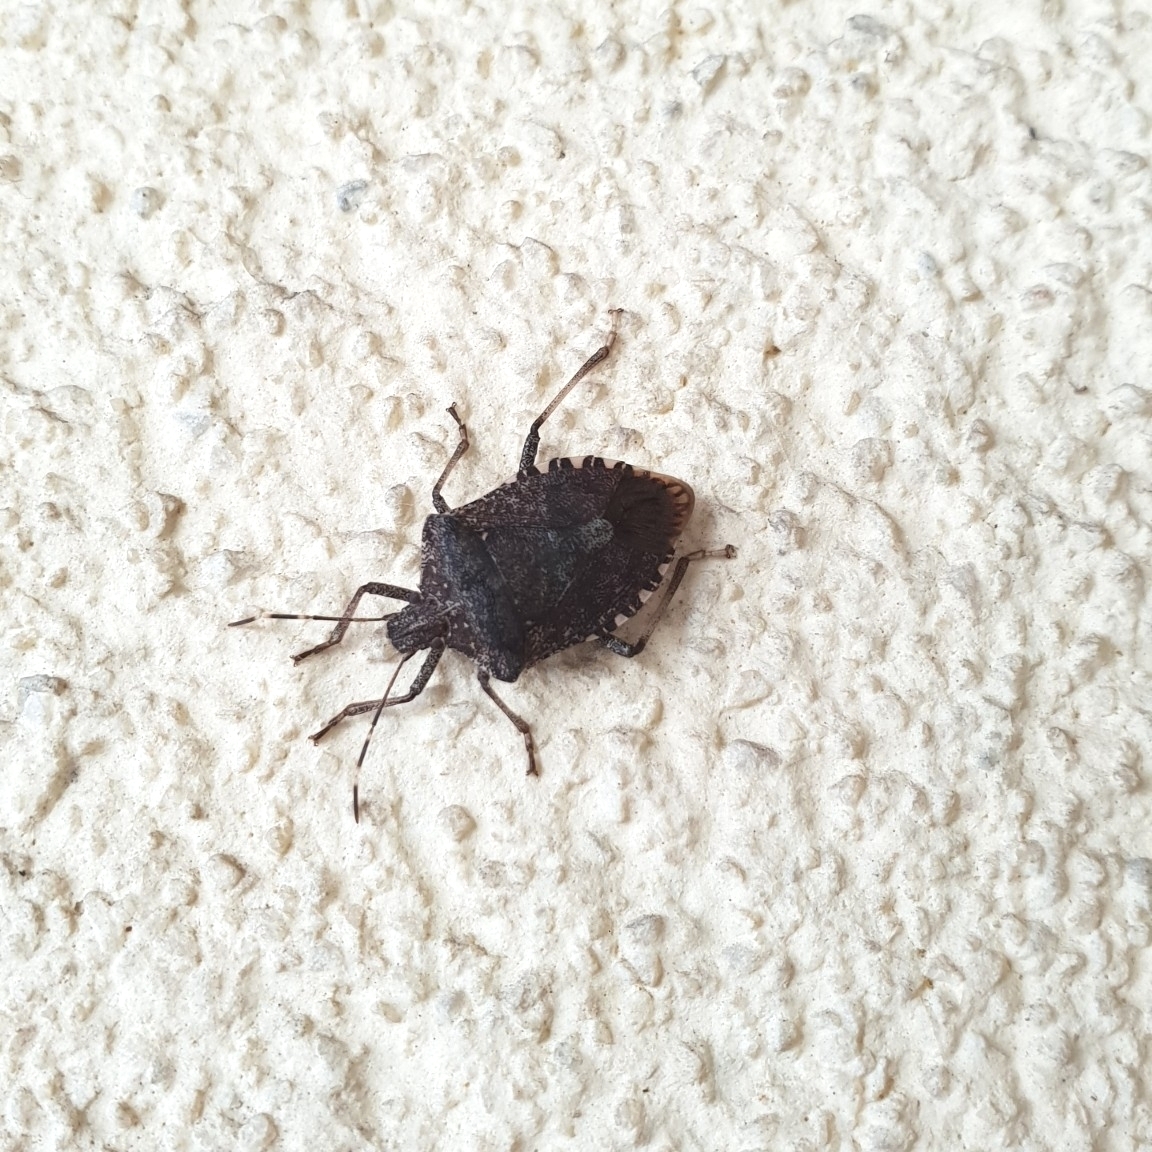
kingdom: Animalia
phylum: Arthropoda
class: Insecta
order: Hemiptera
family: Pentatomidae
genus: Halyomorpha
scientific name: Halyomorpha halys
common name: Brown marmorated stink bug
